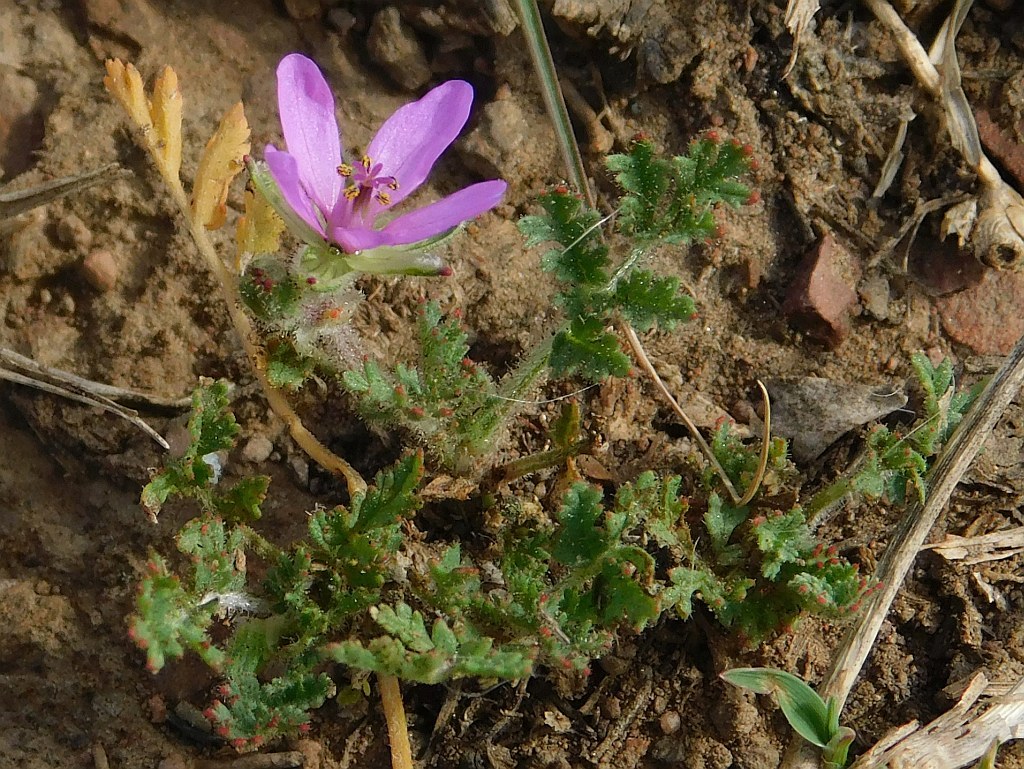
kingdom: Plantae
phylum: Tracheophyta
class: Magnoliopsida
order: Geraniales
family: Geraniaceae
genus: Erodium
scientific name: Erodium cicutarium
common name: Common stork's-bill
